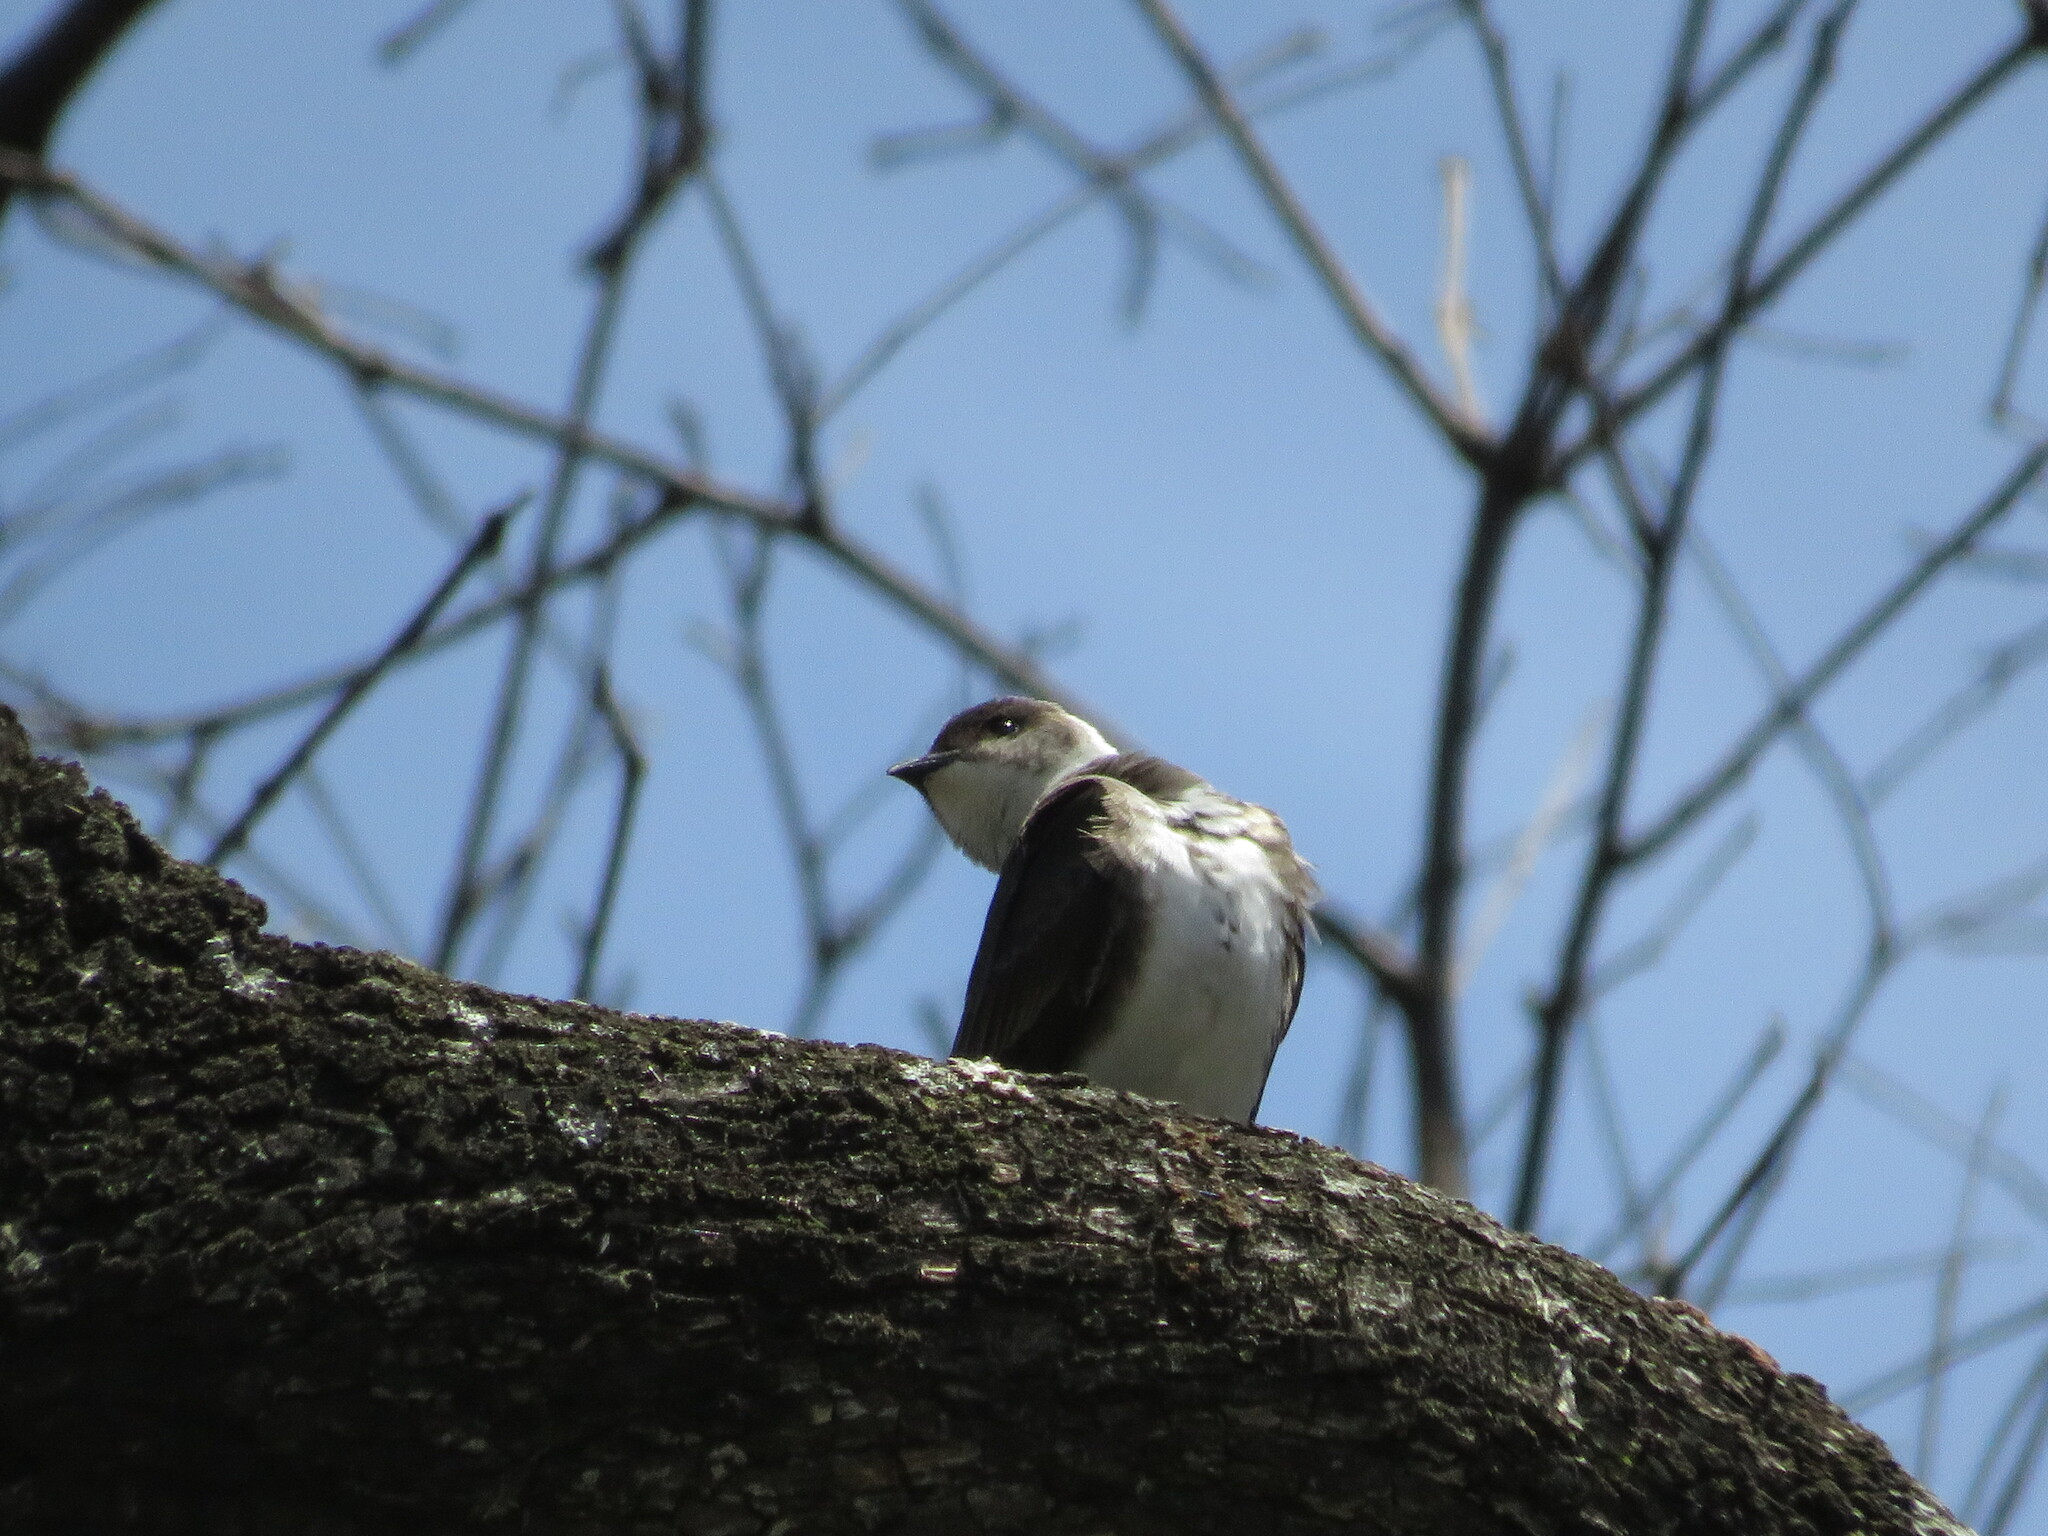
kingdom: Animalia
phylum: Chordata
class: Aves
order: Passeriformes
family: Hirundinidae
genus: Progne
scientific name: Progne tapera
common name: Brown-chested martin
